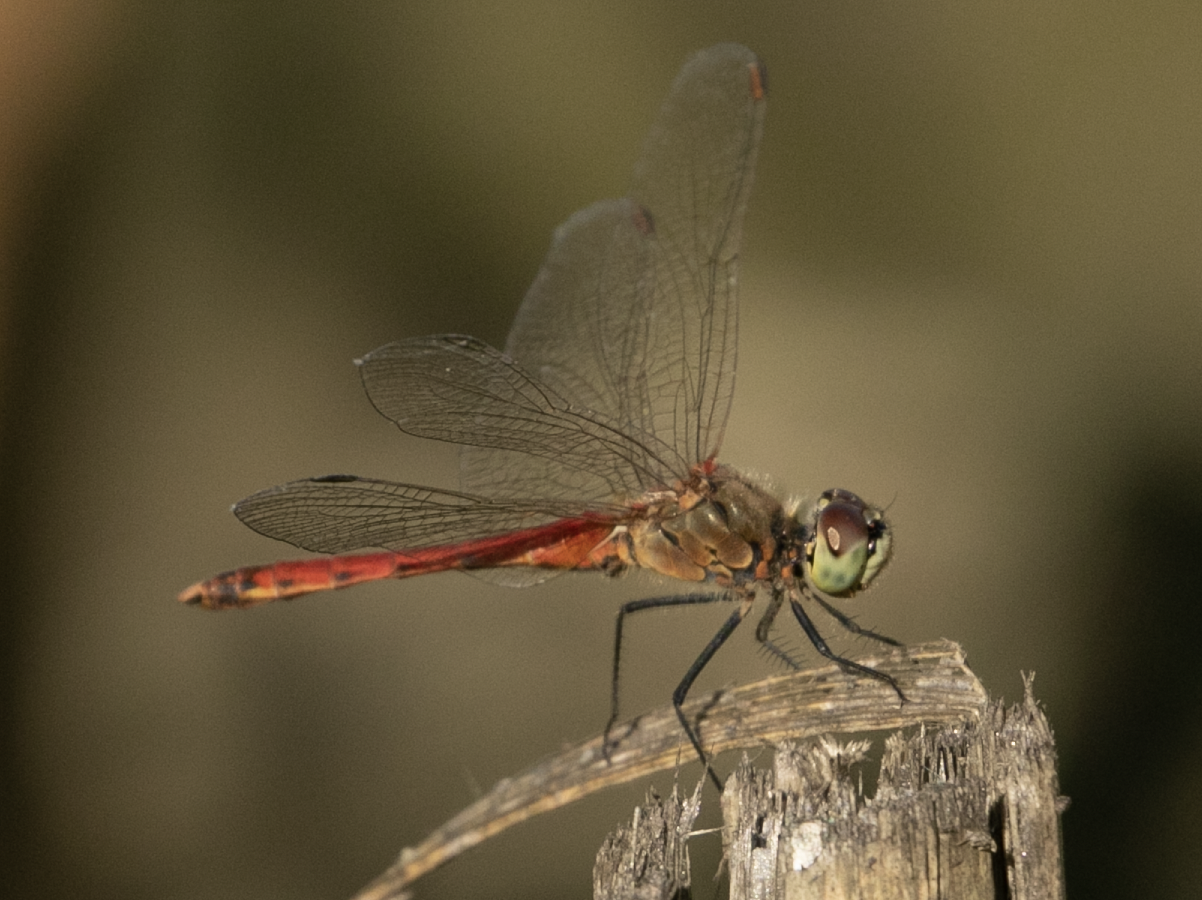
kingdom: Animalia
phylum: Arthropoda
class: Insecta
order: Odonata
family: Libellulidae
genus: Sympetrum
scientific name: Sympetrum depressiusculum
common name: Spotted darter
